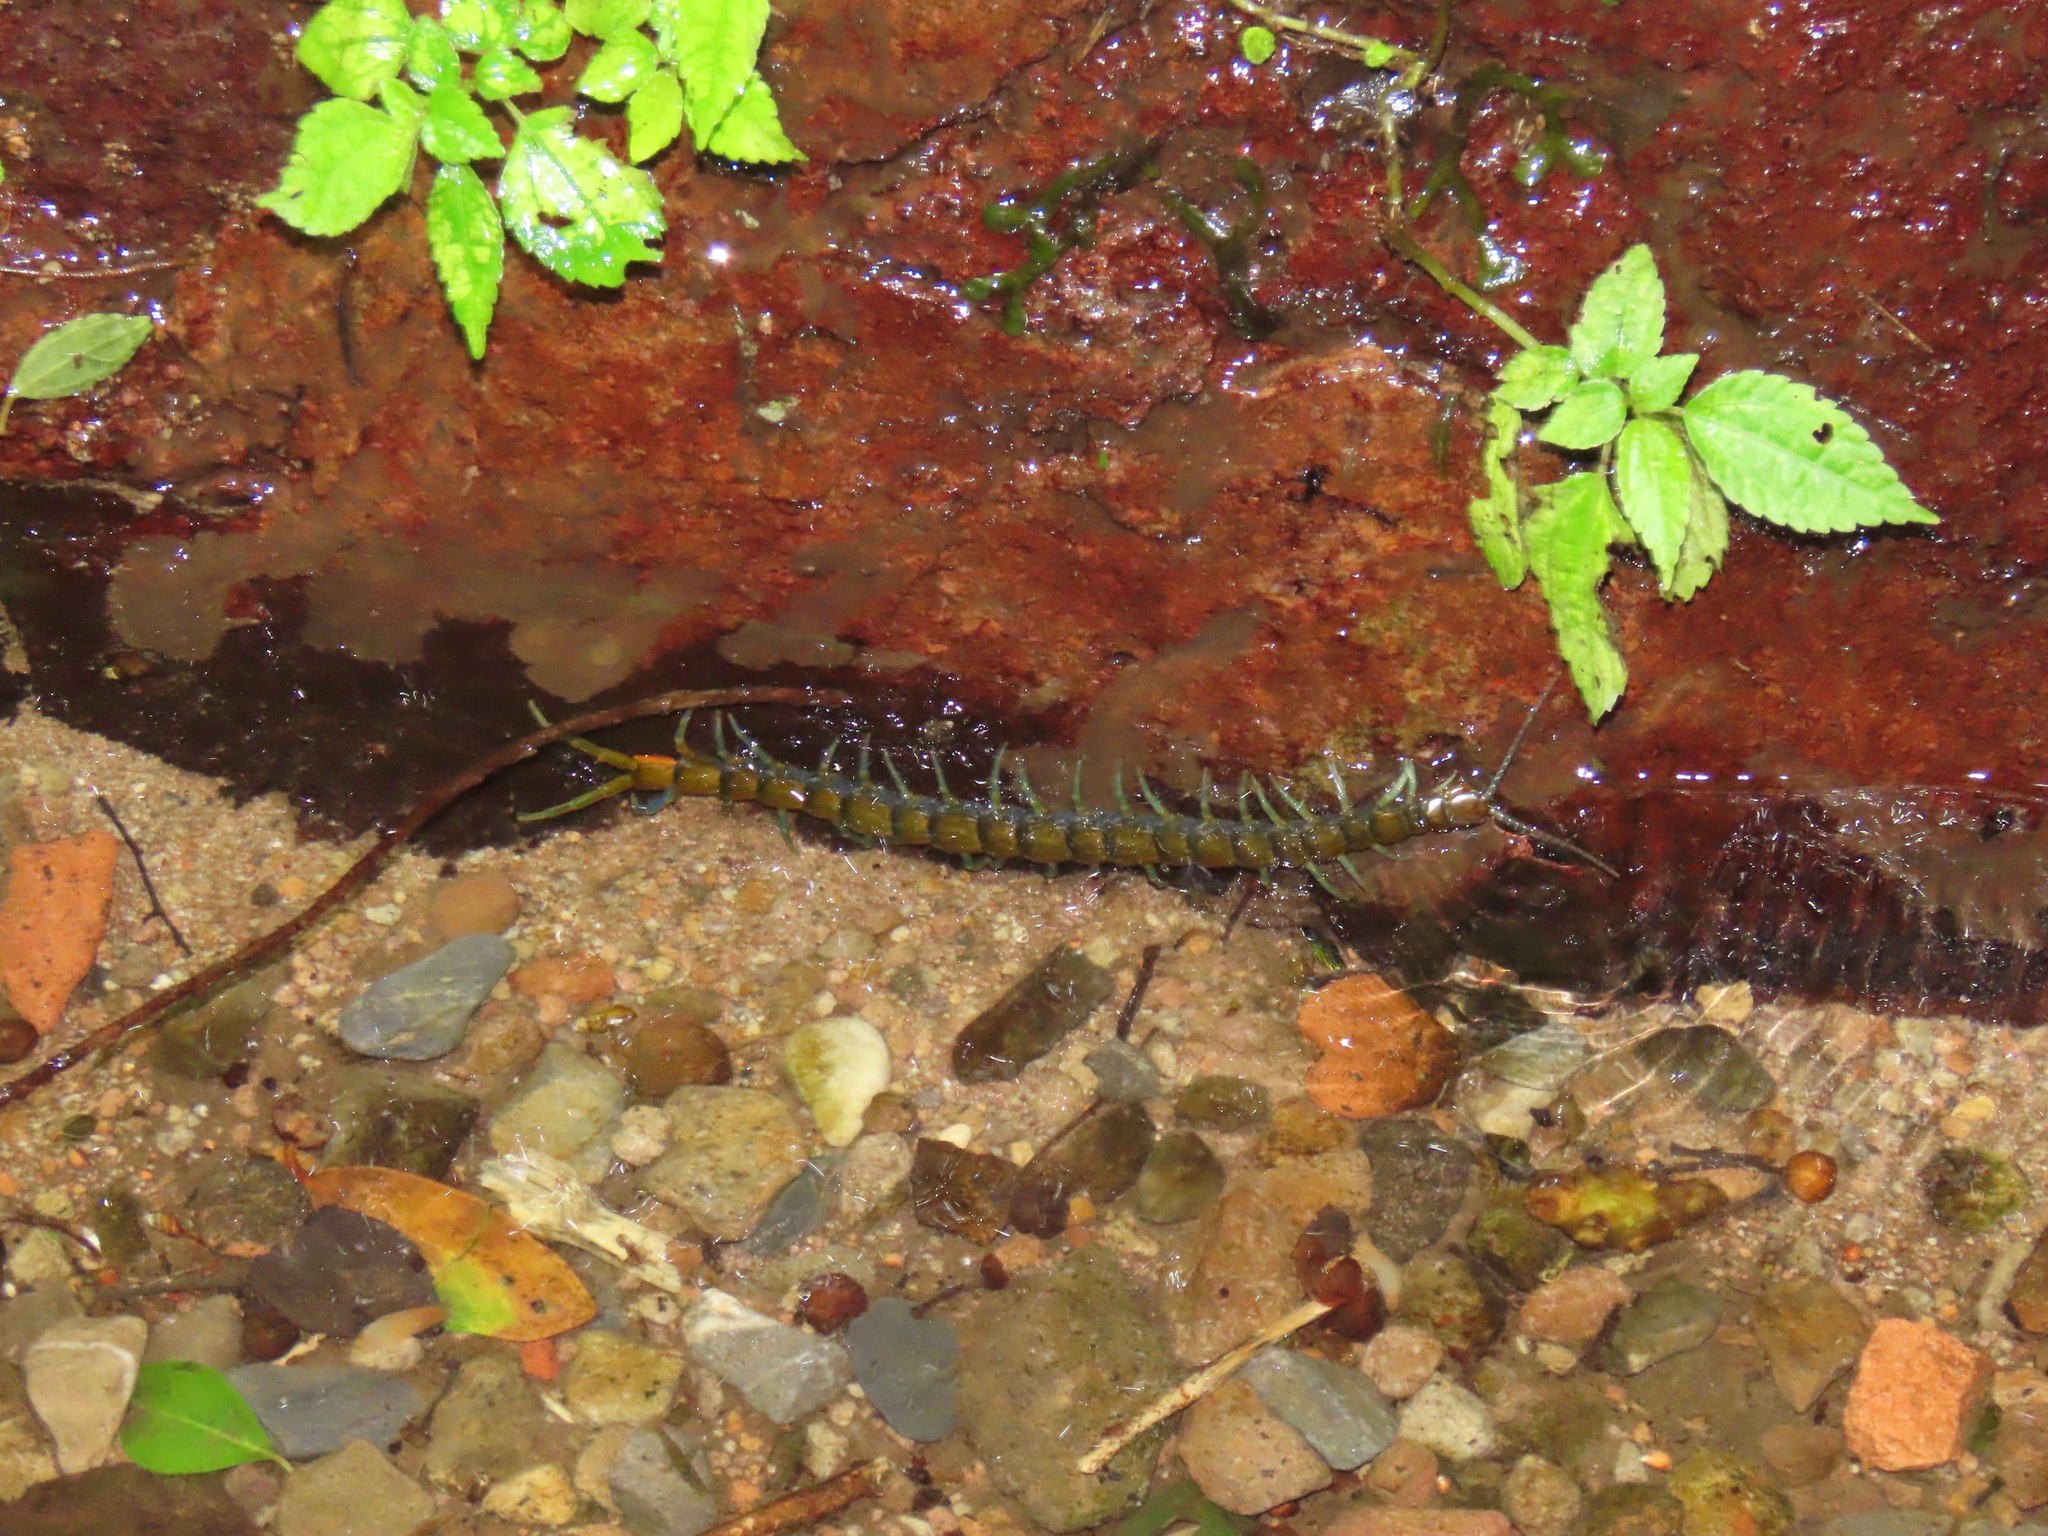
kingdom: Animalia
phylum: Arthropoda
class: Chilopoda
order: Scolopendromorpha
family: Scolopendridae
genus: Scolopendra
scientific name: Scolopendra alcyona
